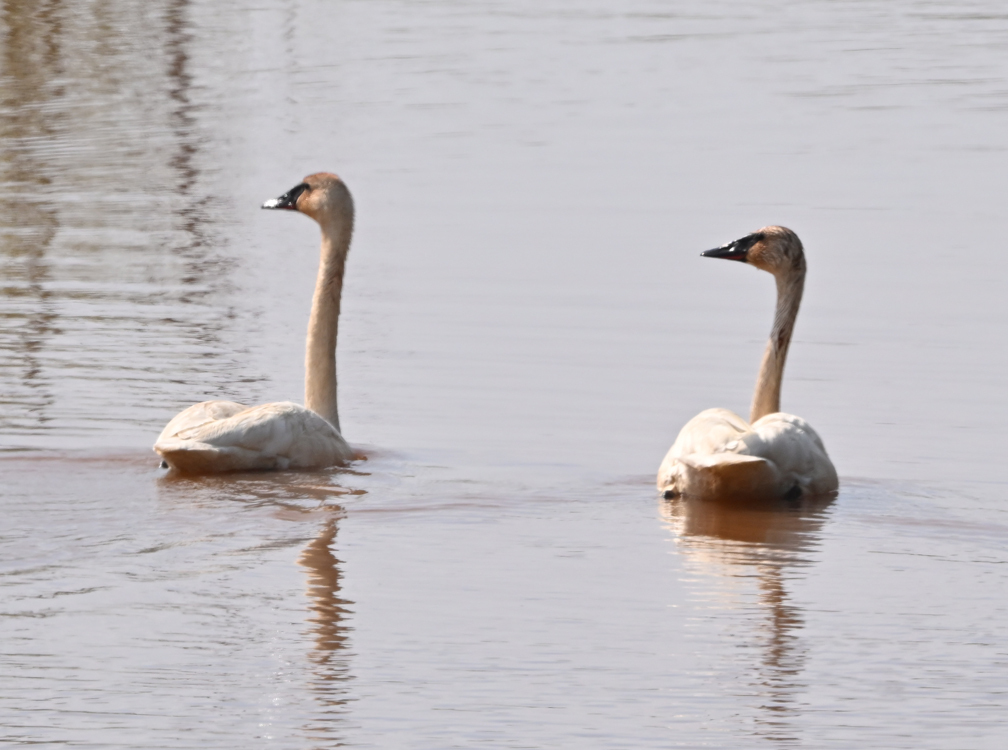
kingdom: Animalia
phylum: Chordata
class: Aves
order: Anseriformes
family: Anatidae
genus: Cygnus
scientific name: Cygnus buccinator
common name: Trumpeter swan
